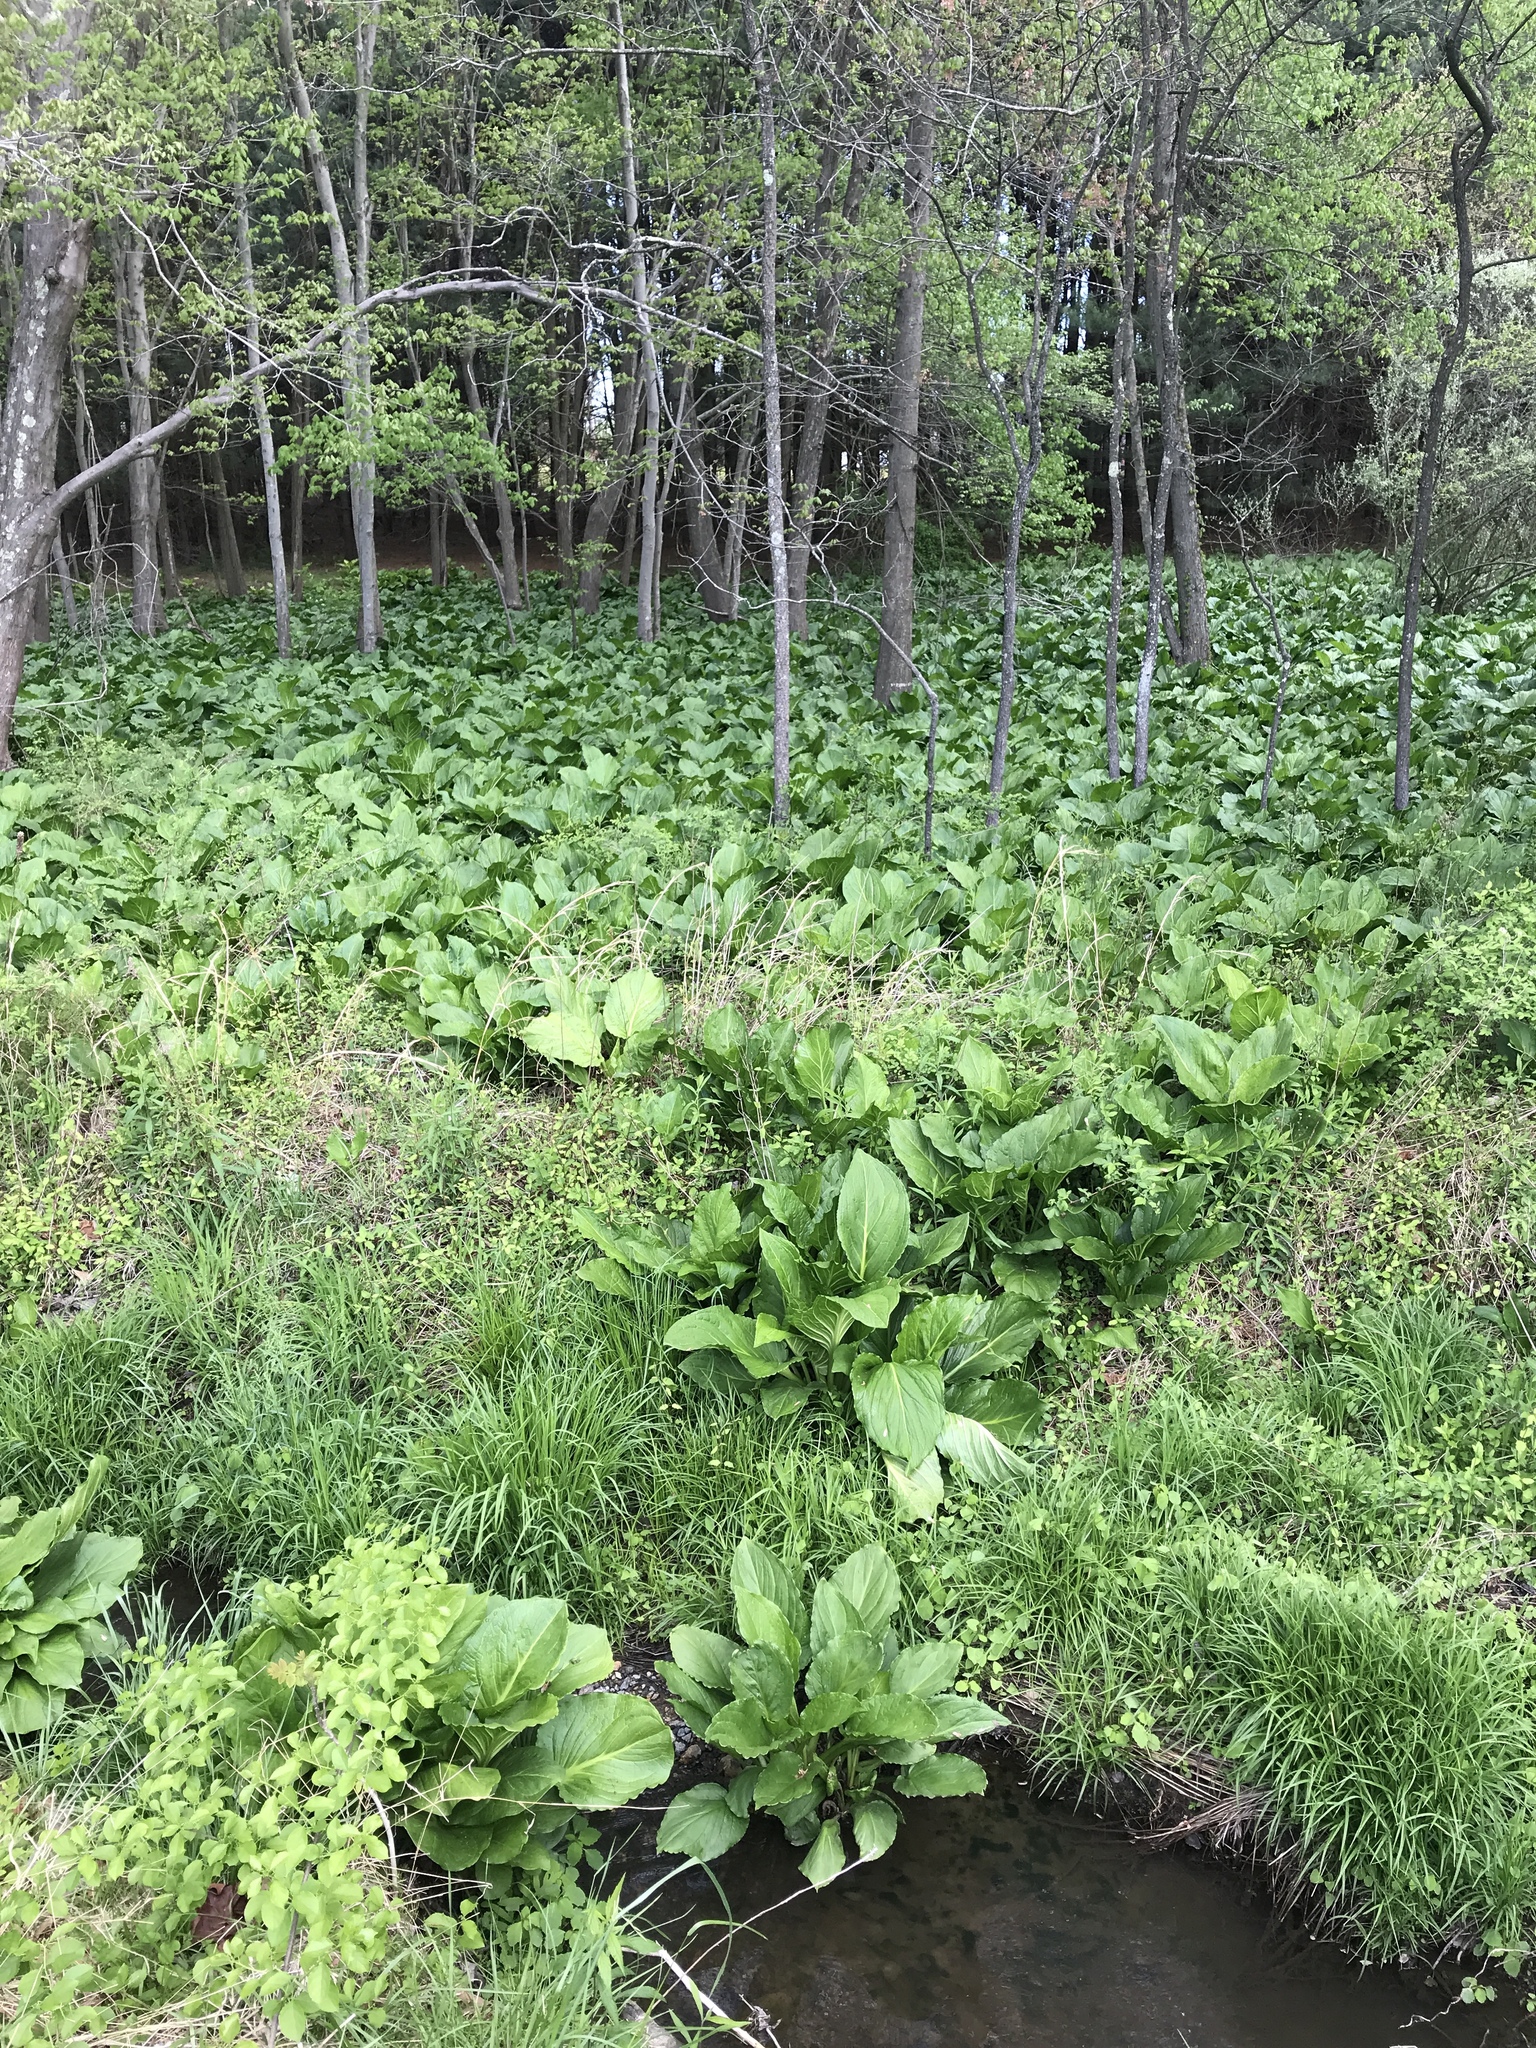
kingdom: Plantae
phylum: Tracheophyta
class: Liliopsida
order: Alismatales
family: Araceae
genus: Symplocarpus
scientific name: Symplocarpus foetidus
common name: Eastern skunk cabbage
